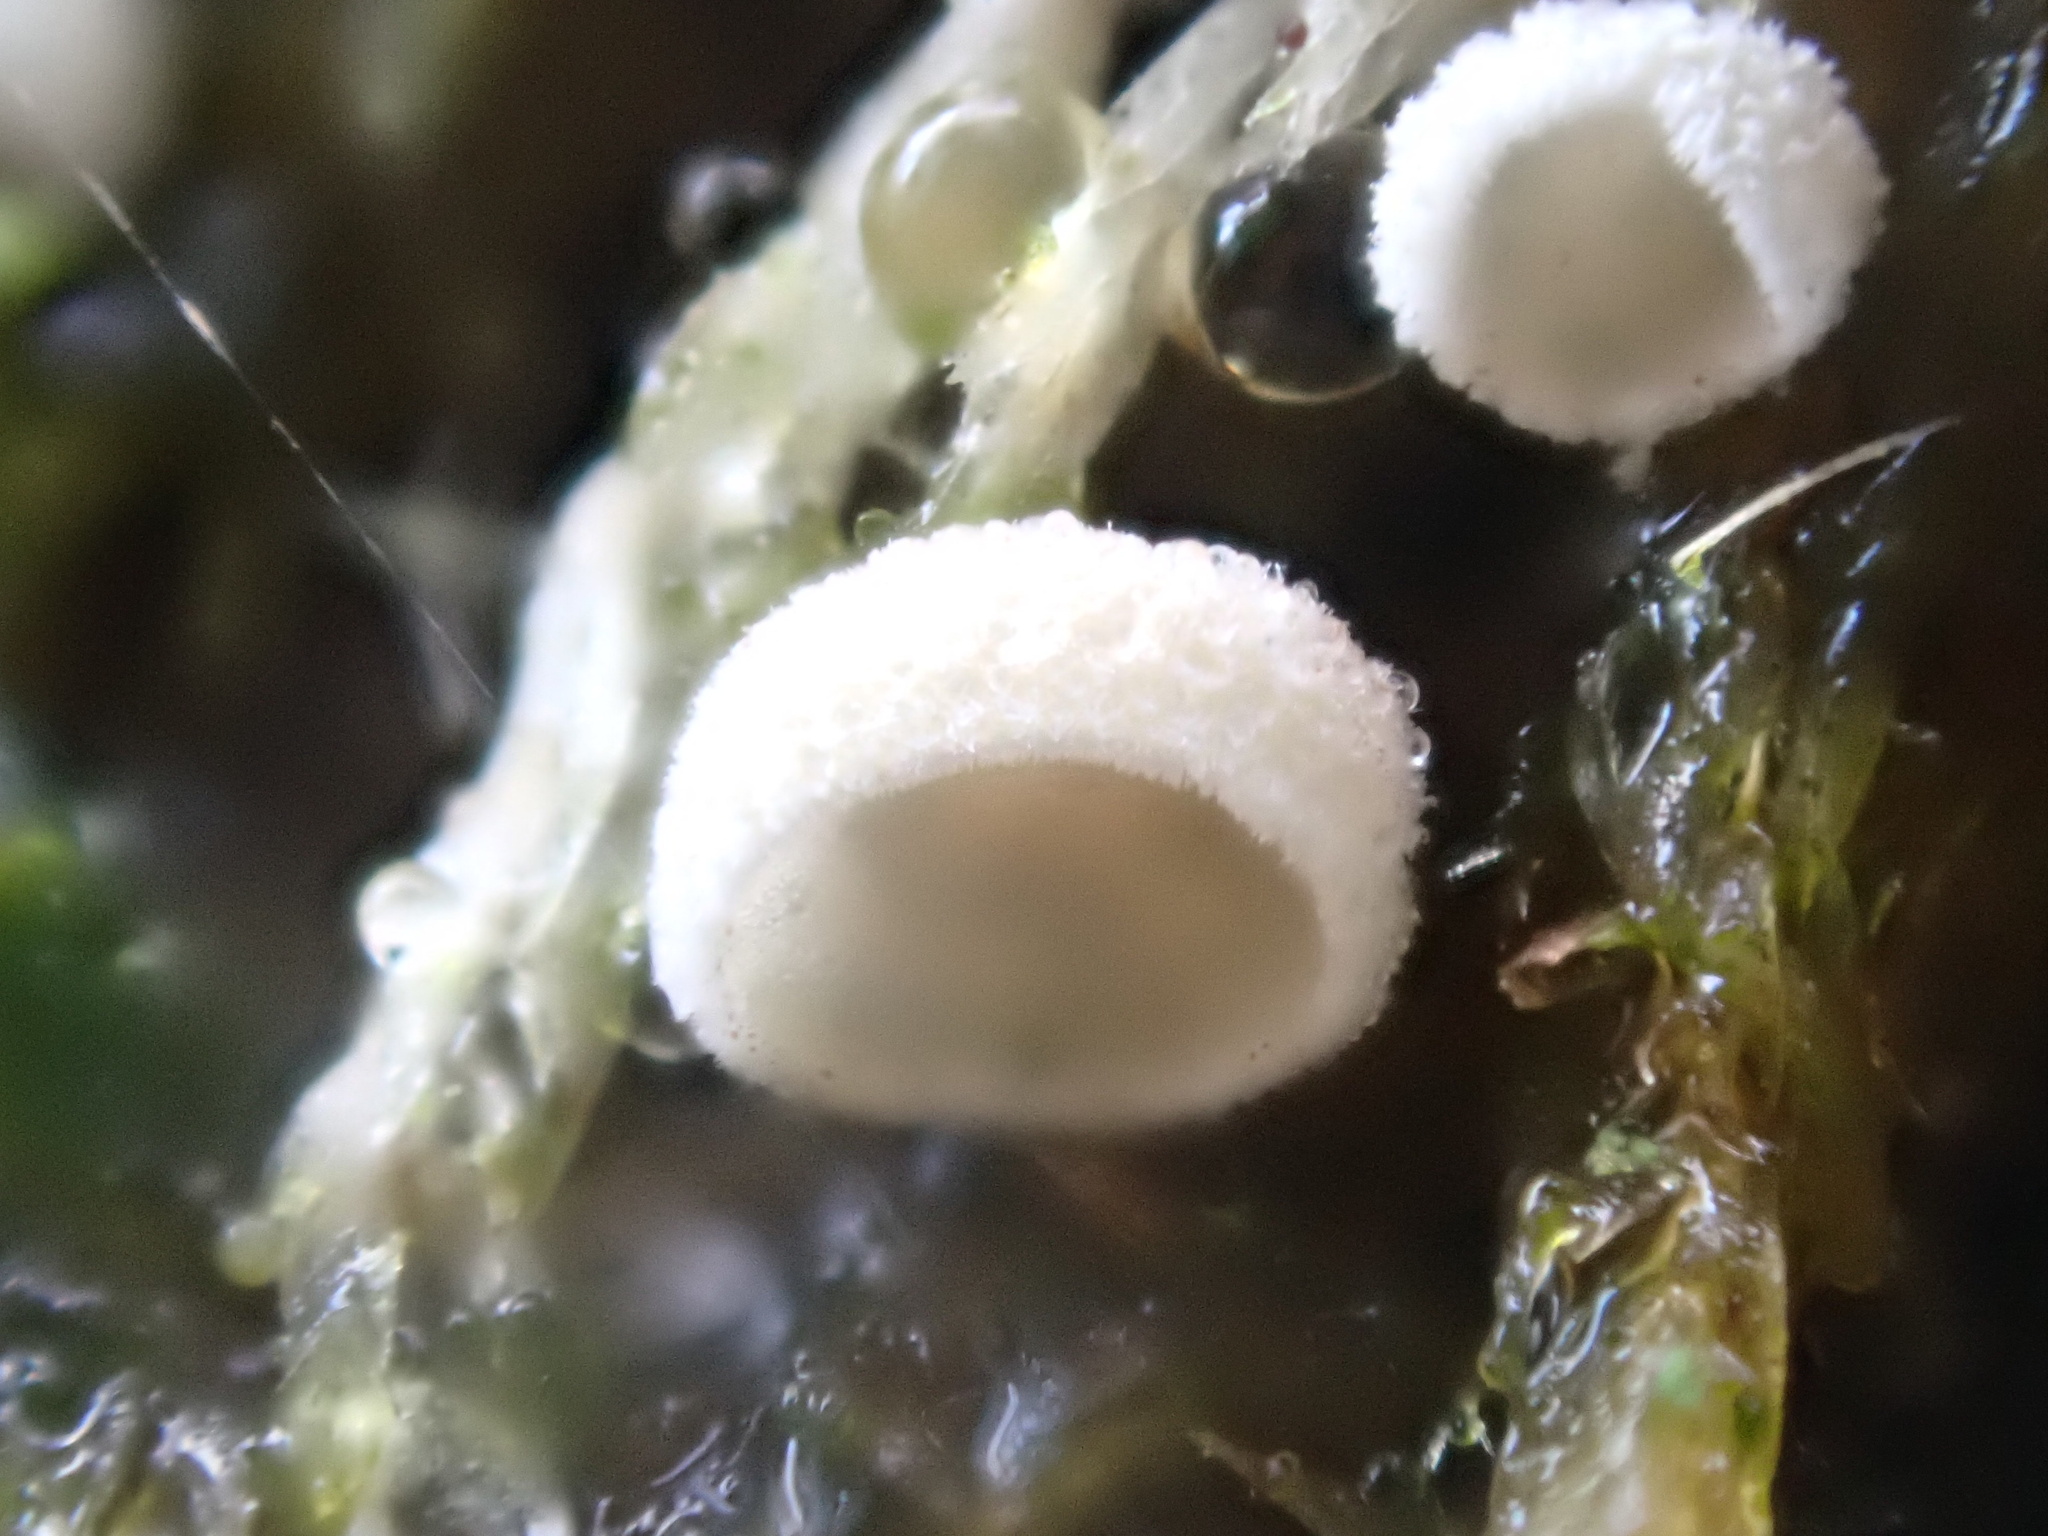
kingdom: Fungi
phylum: Basidiomycota
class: Agaricomycetes
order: Agaricales
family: Chromocyphellaceae
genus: Chromocyphella
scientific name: Chromocyphella muscicola
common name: Moss ear
